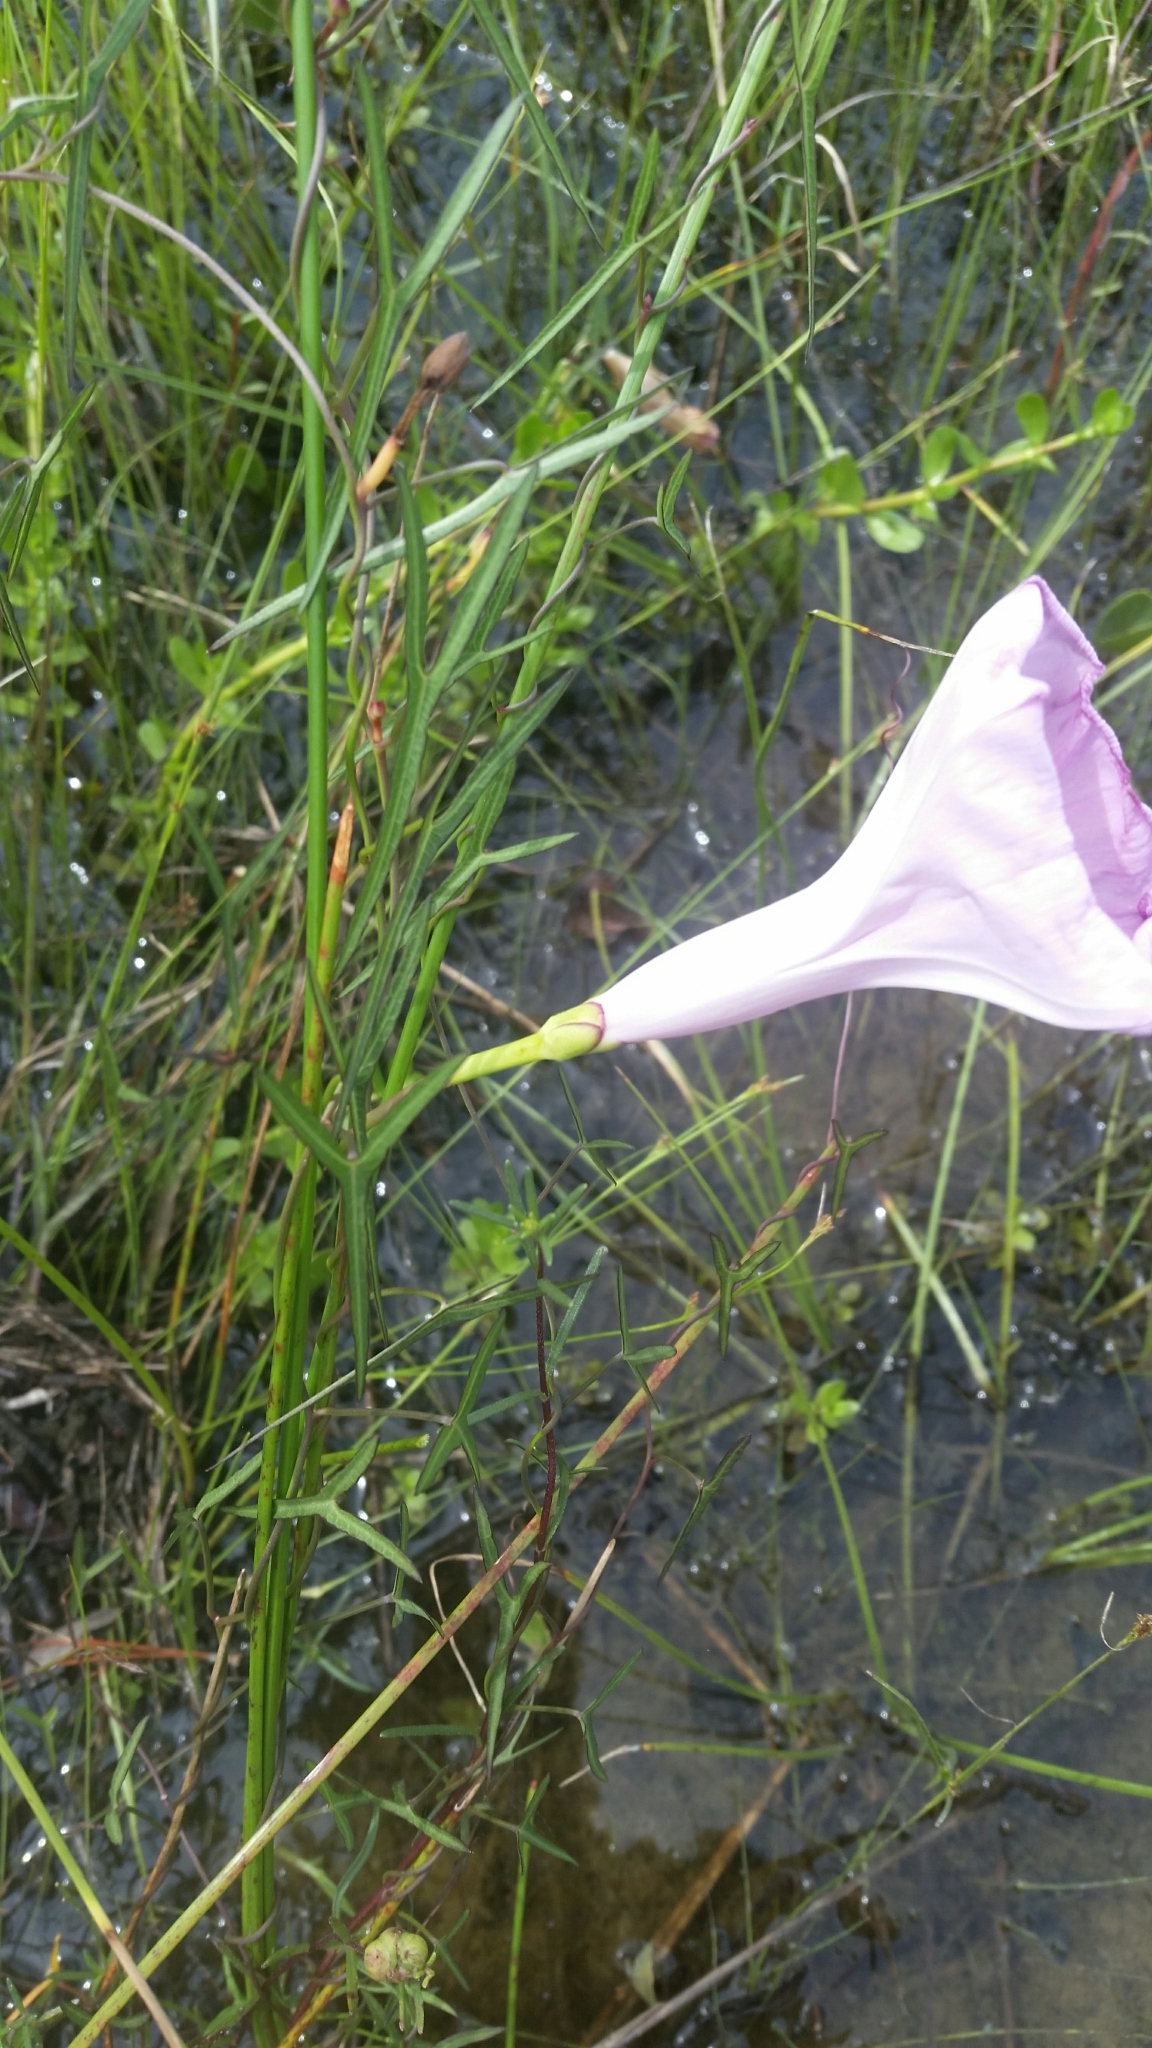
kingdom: Plantae
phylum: Tracheophyta
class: Magnoliopsida
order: Solanales
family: Convolvulaceae
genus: Ipomoea
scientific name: Ipomoea sagittata
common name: Saltmarsh morning glory
